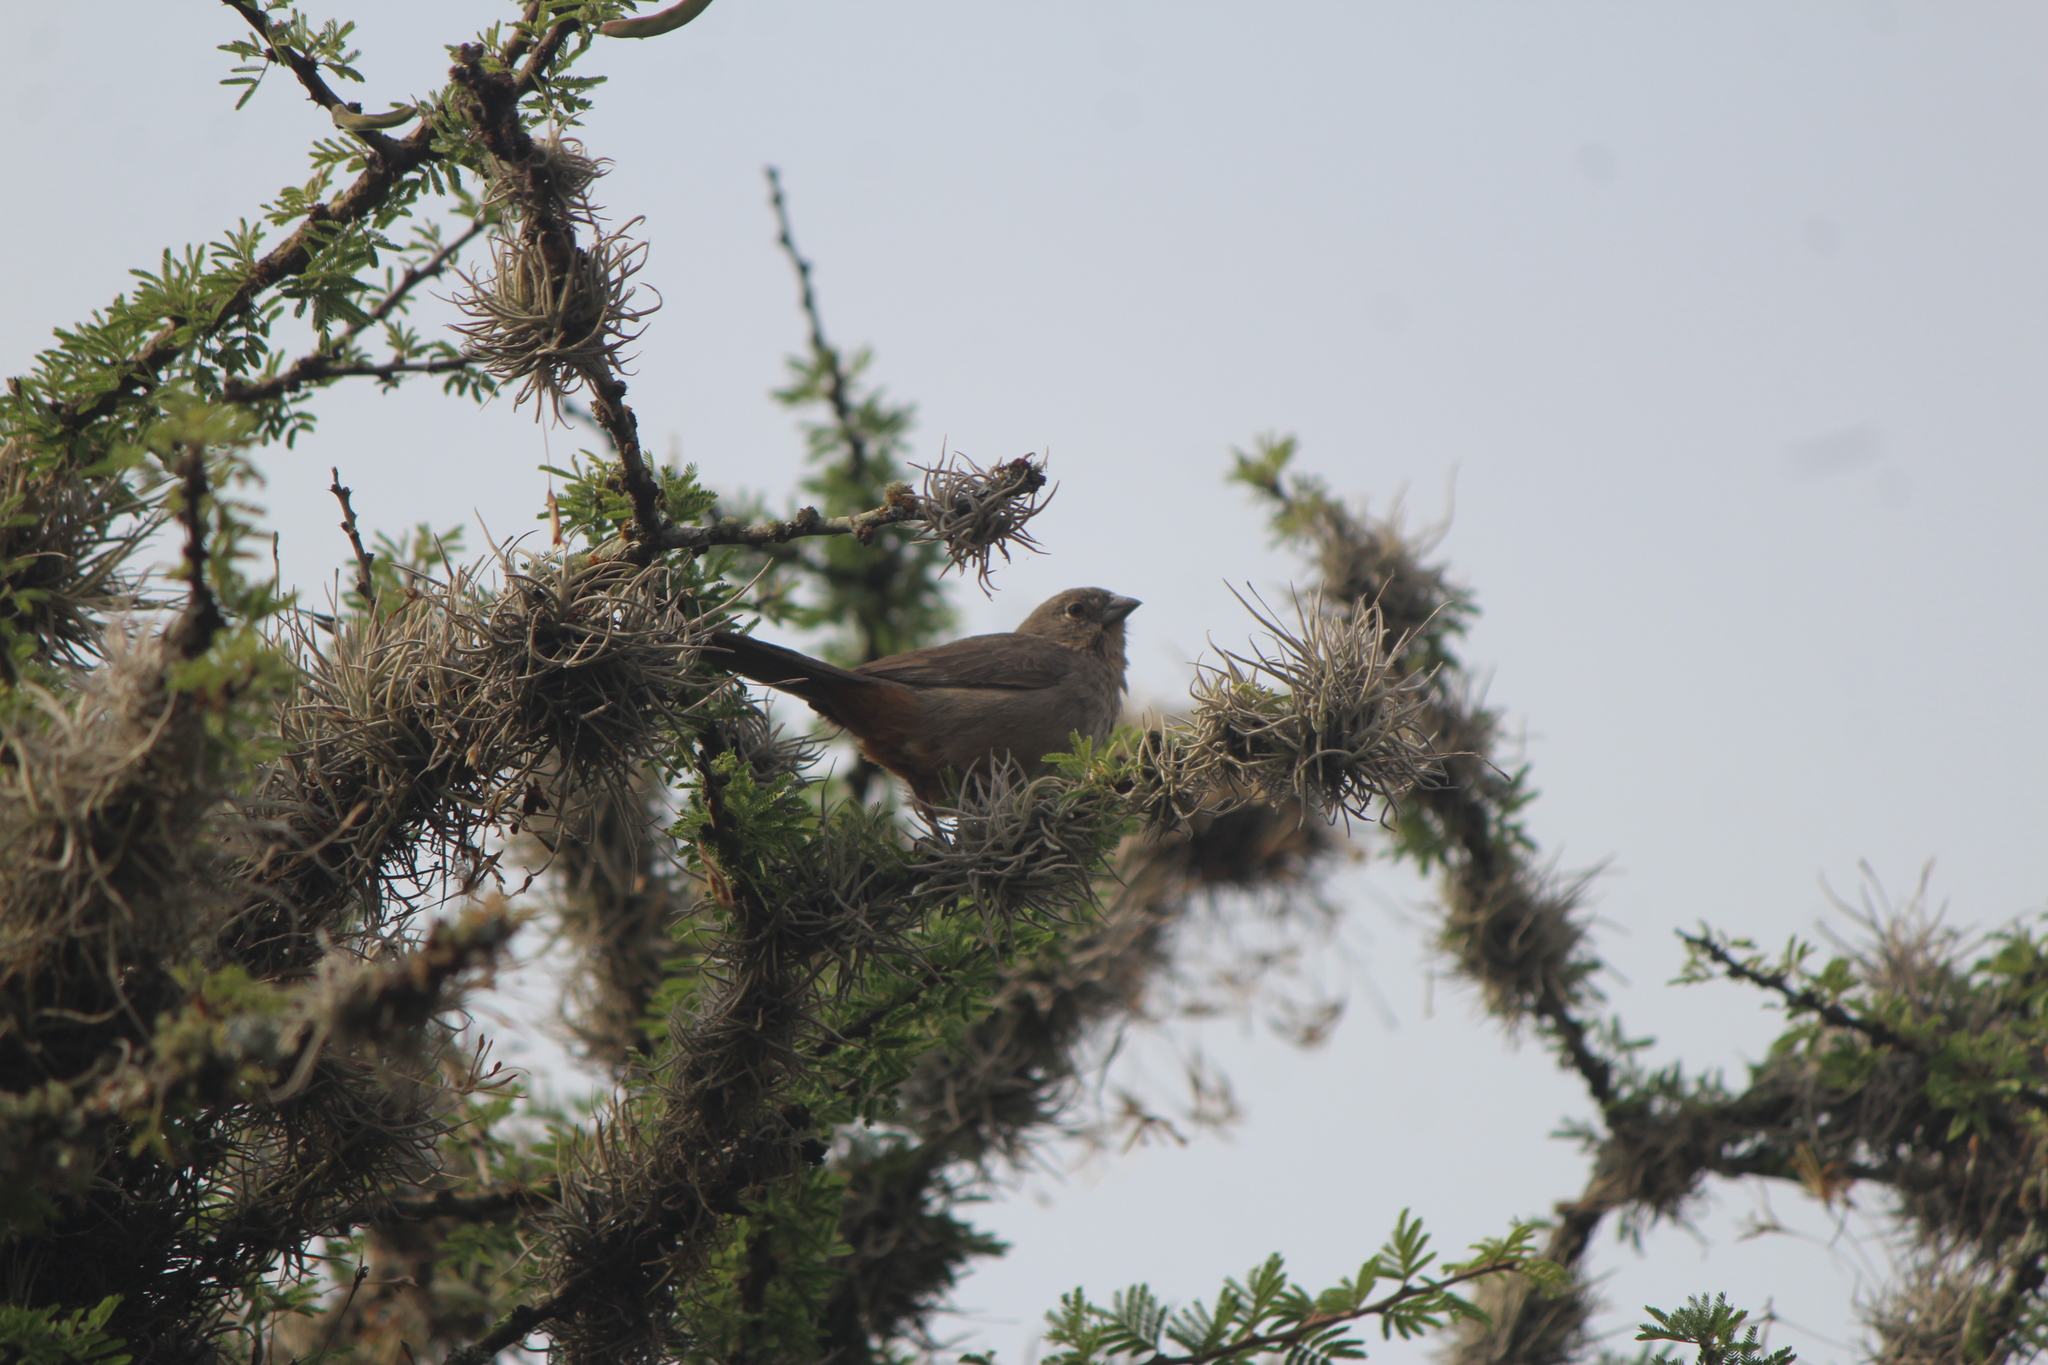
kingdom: Animalia
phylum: Chordata
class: Aves
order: Passeriformes
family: Passerellidae
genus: Melozone
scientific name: Melozone fusca
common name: Canyon towhee
